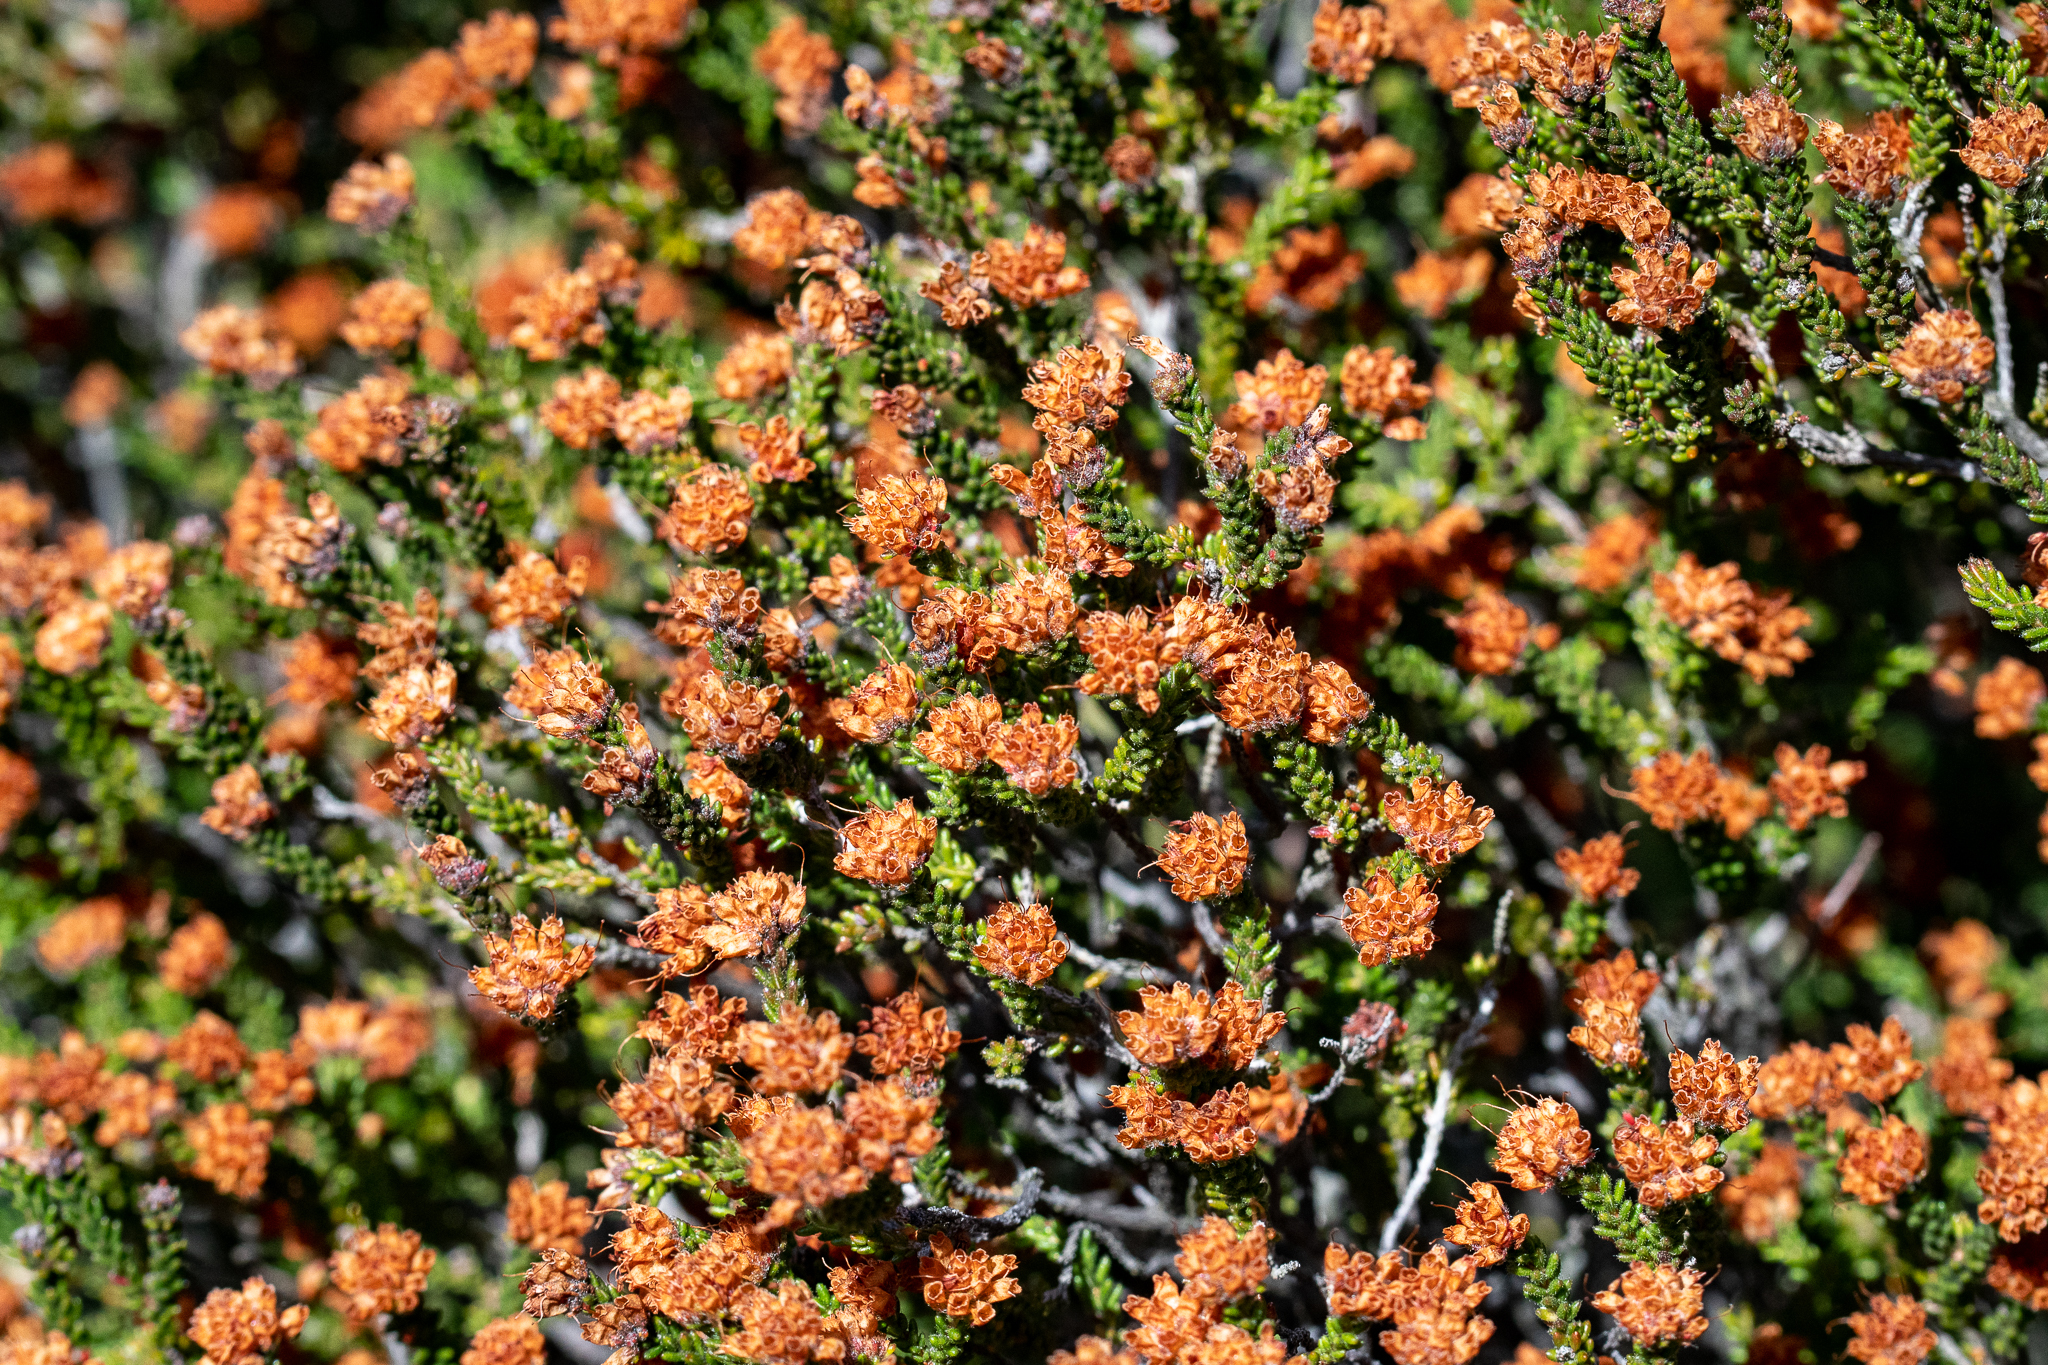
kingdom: Plantae
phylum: Tracheophyta
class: Magnoliopsida
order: Ericales
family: Ericaceae
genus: Erica
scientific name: Erica ericoides
